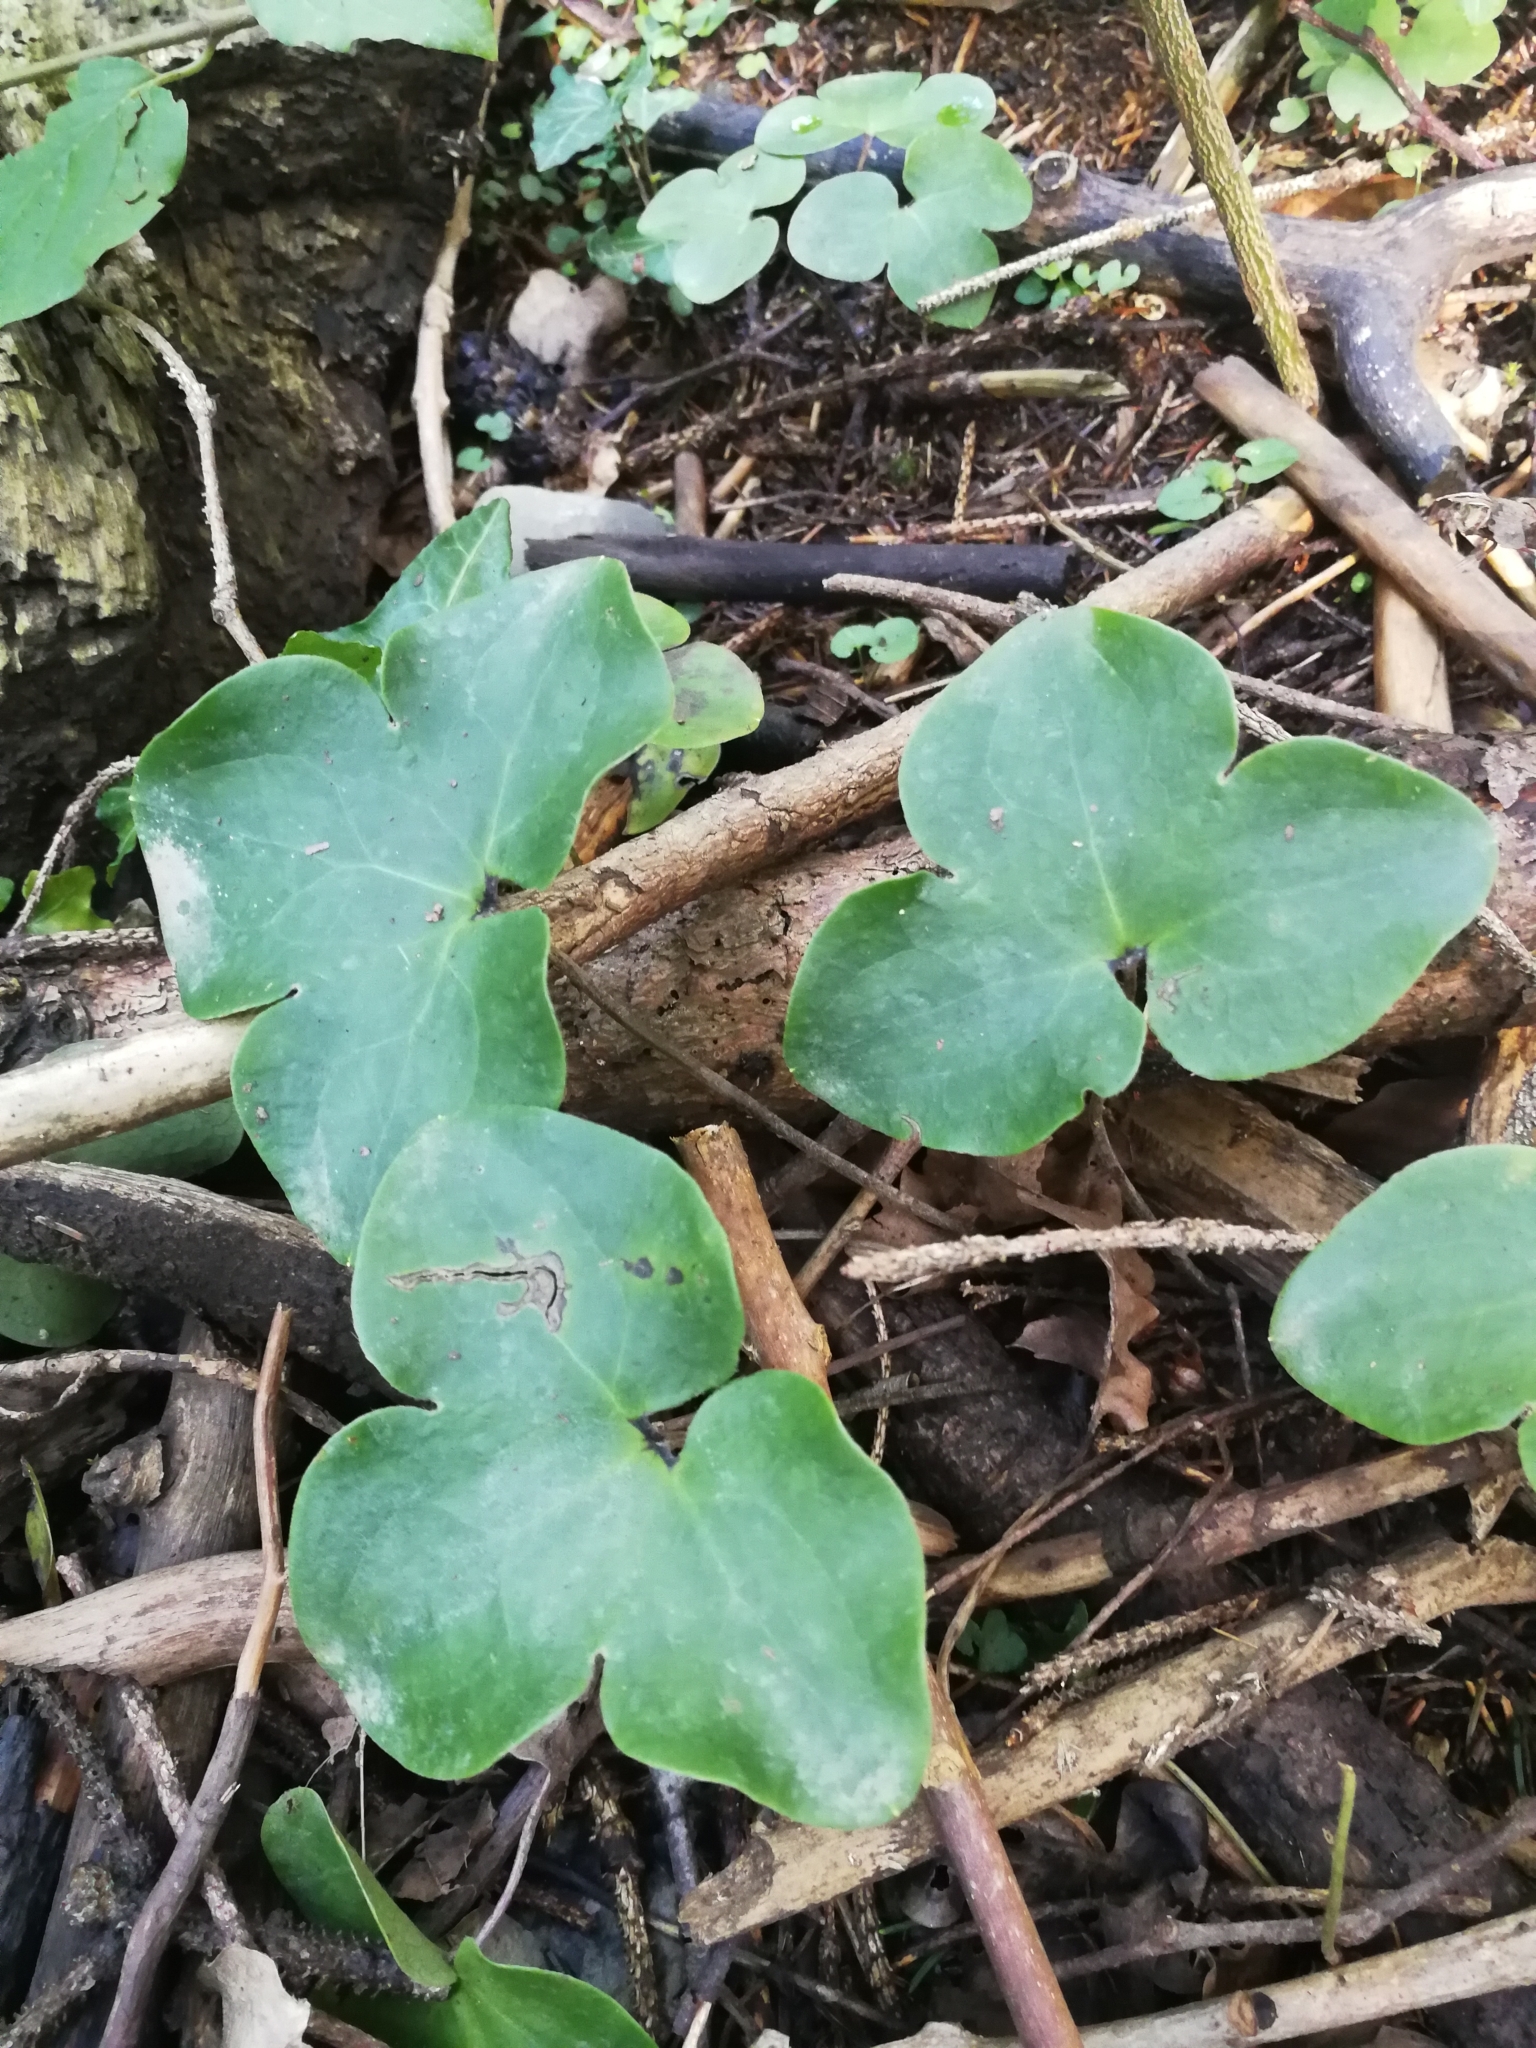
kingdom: Plantae
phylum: Tracheophyta
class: Magnoliopsida
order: Ranunculales
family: Ranunculaceae
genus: Hepatica
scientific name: Hepatica nobilis
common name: Liverleaf
